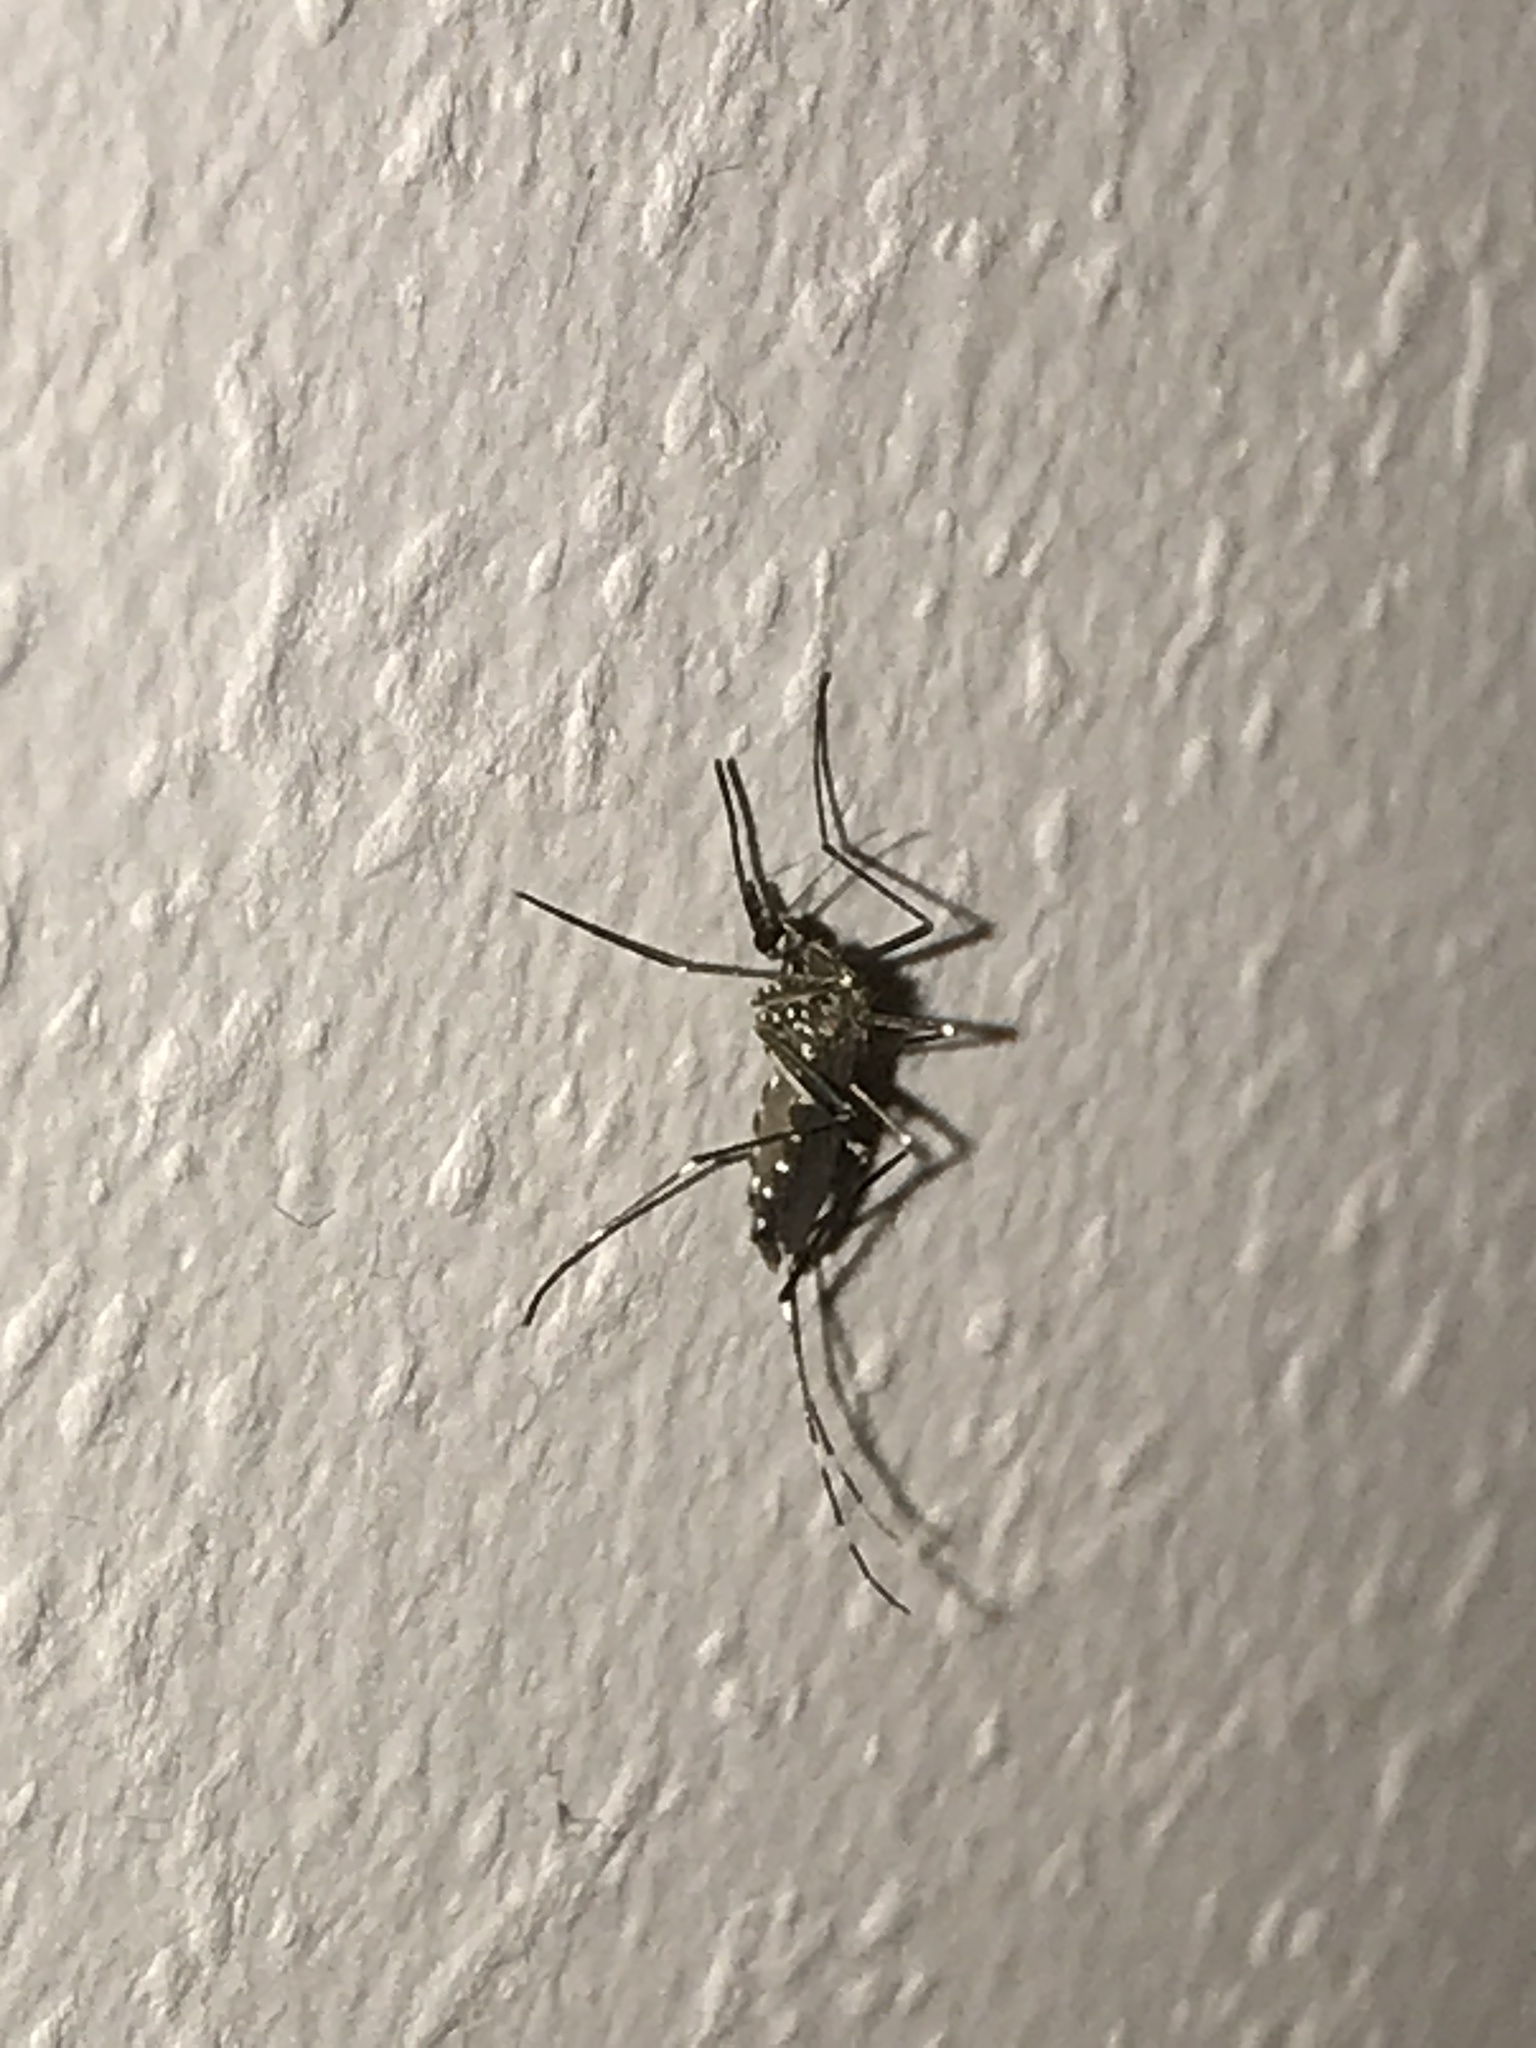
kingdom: Animalia
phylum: Arthropoda
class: Insecta
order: Diptera
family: Culicidae
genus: Aedes
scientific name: Aedes japonicus
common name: Asian bush mosquito
